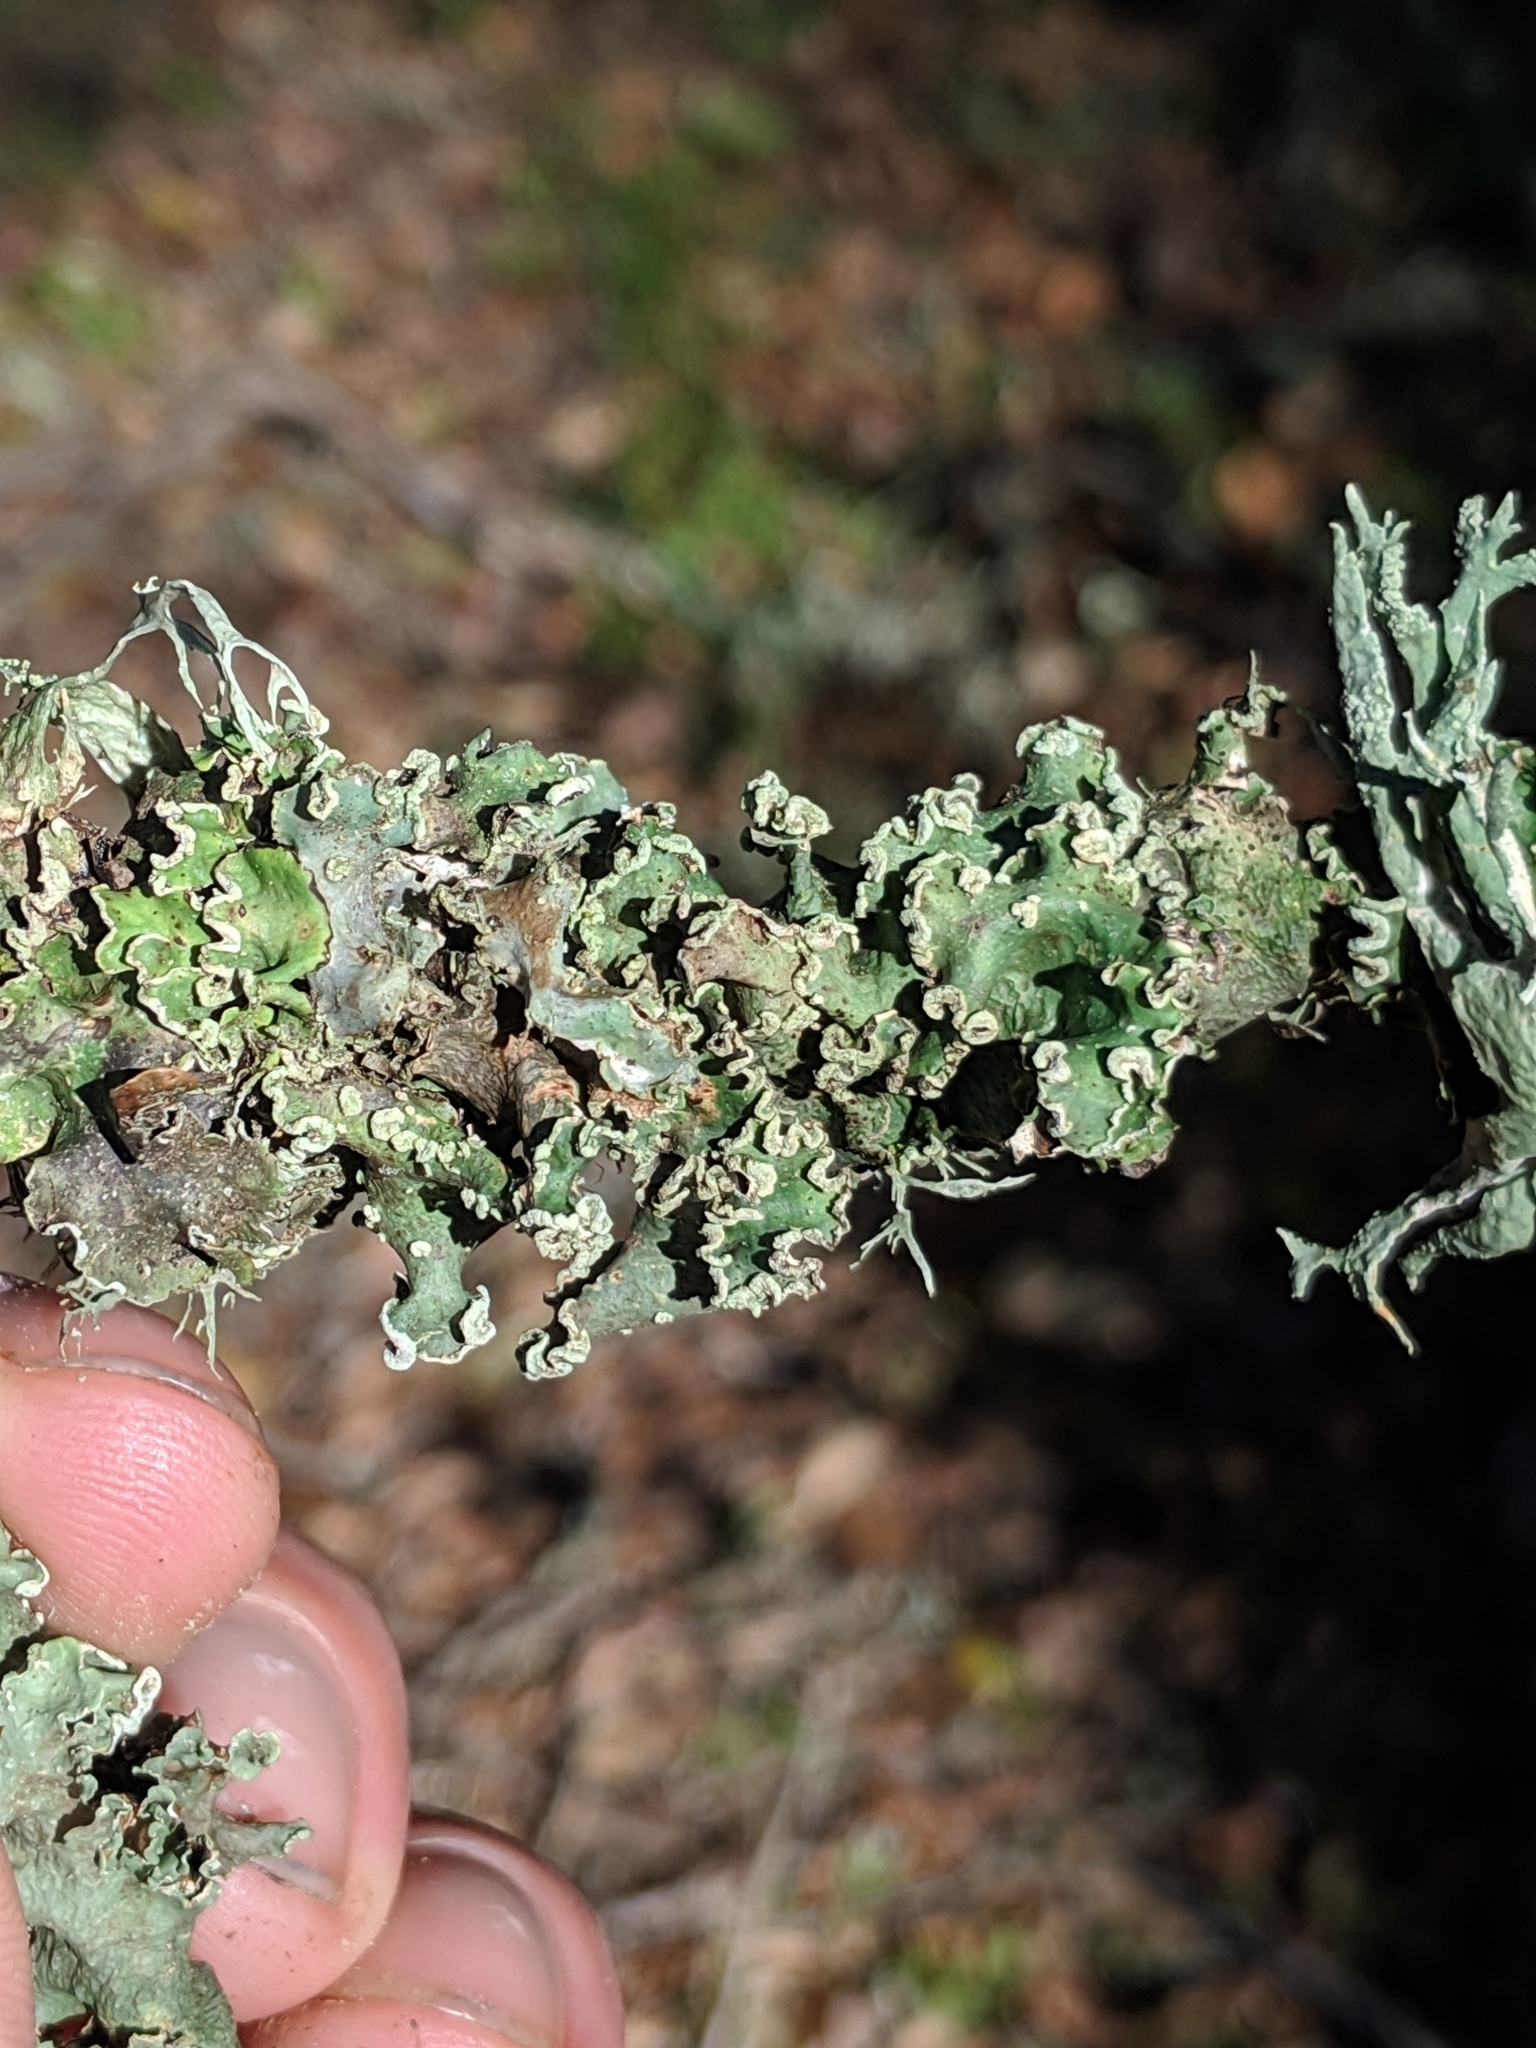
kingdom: Fungi
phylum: Ascomycota
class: Lecanoromycetes
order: Lecanorales
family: Parmeliaceae
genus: Flavopunctelia
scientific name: Flavopunctelia soredica
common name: Powder-edged speckled greenshield
